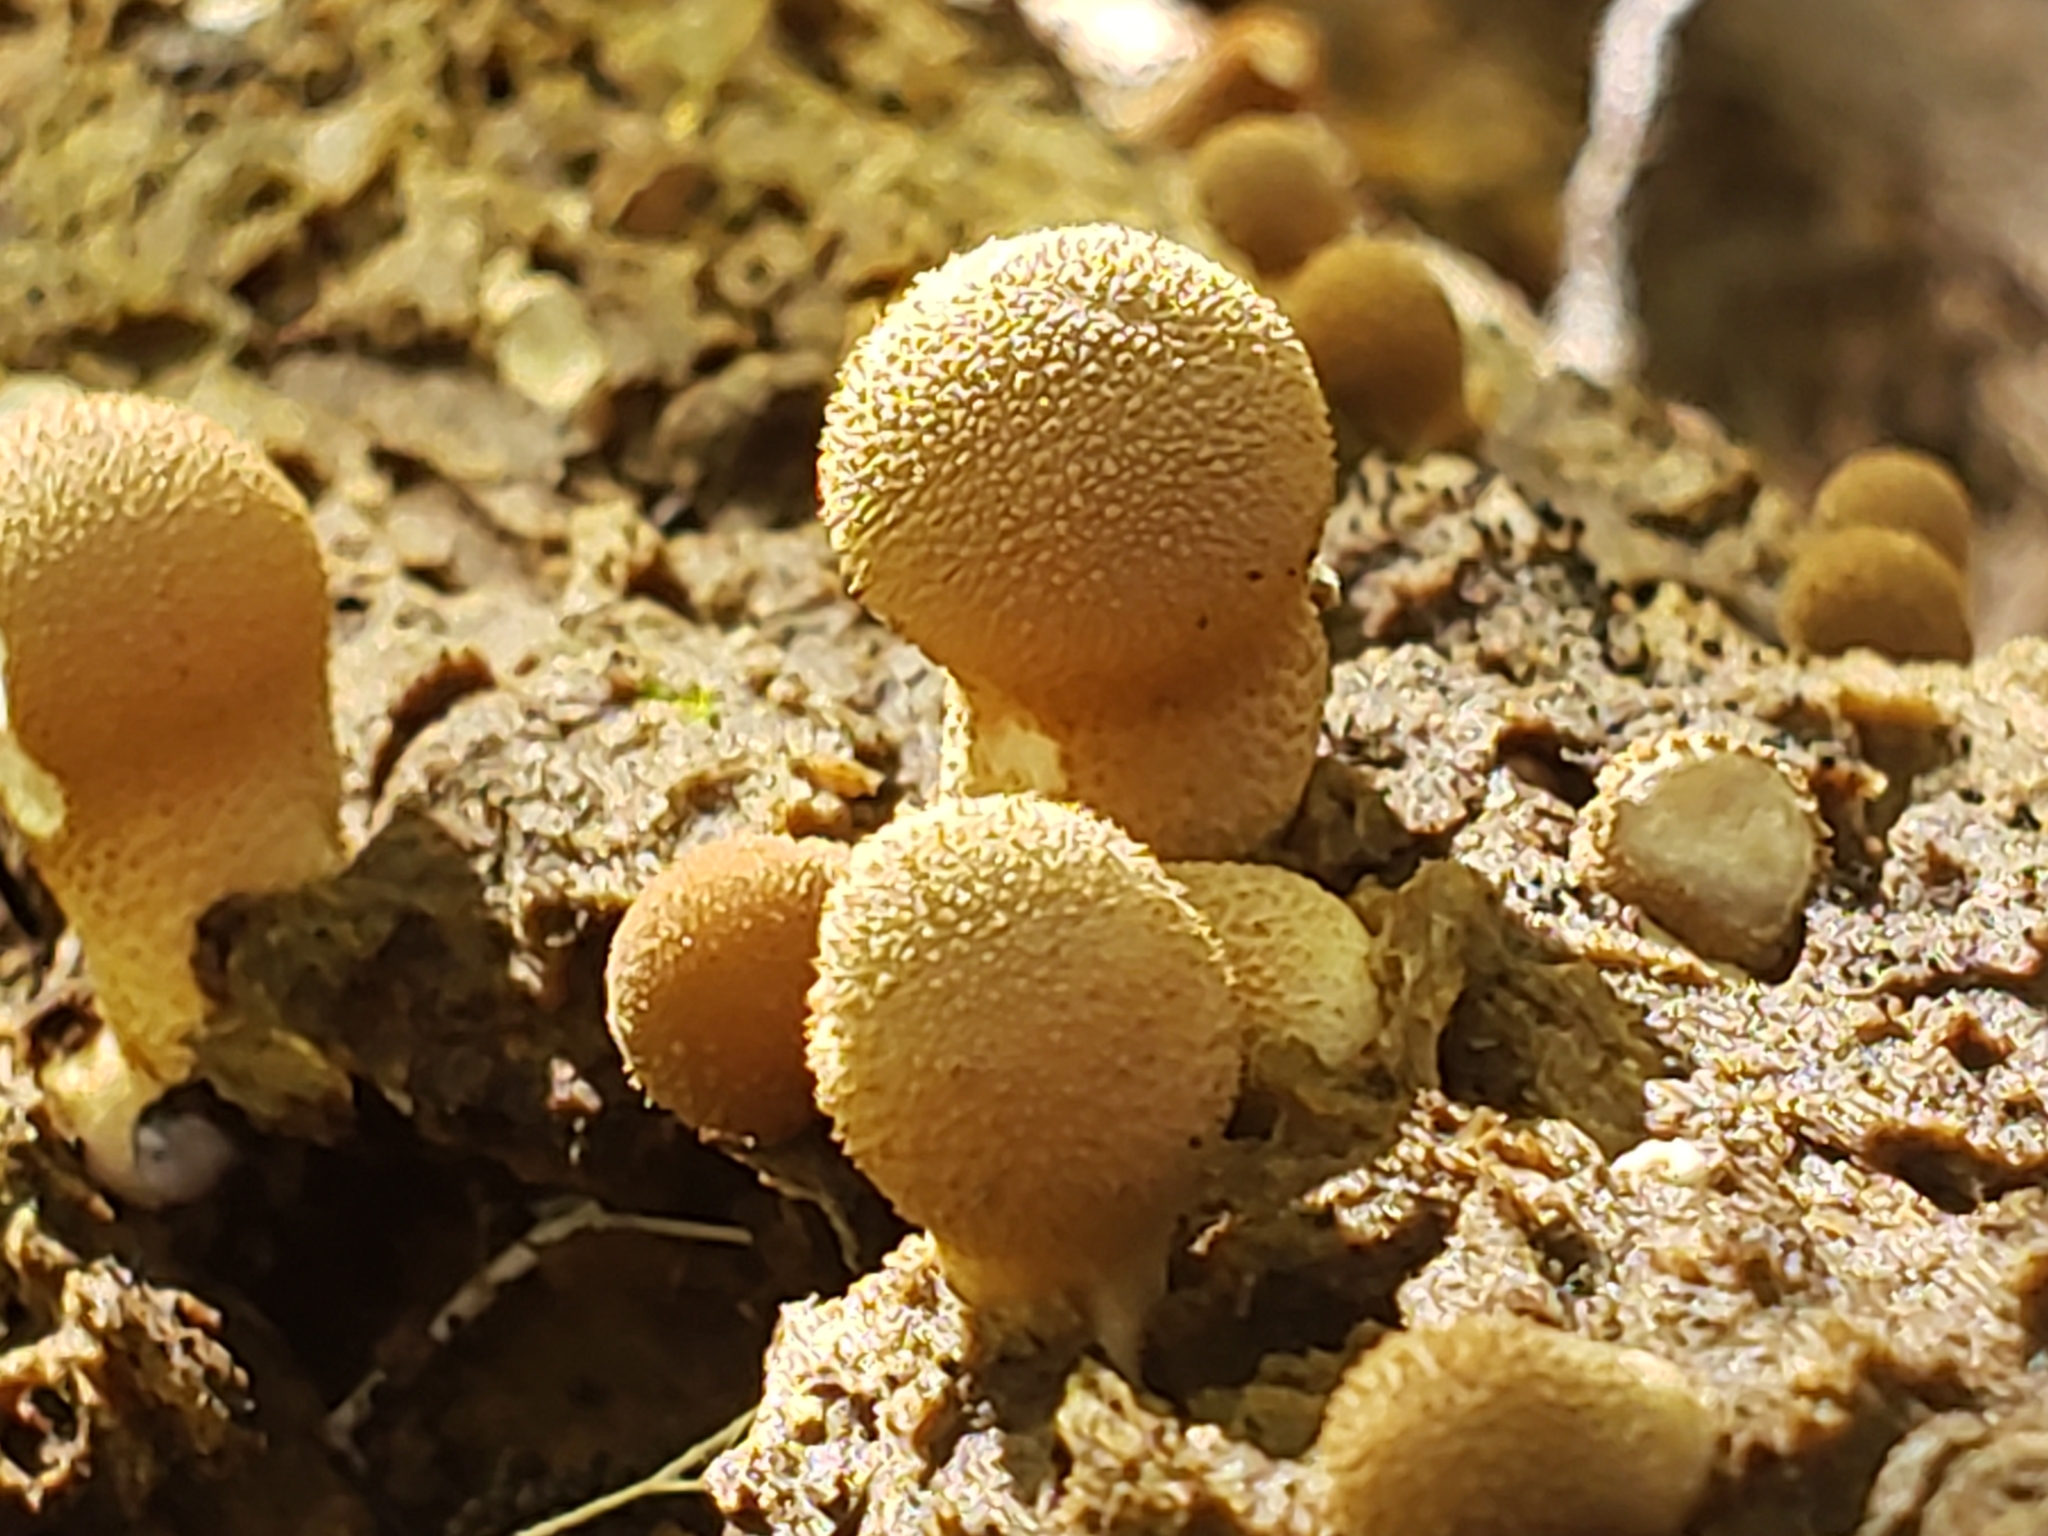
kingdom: Fungi
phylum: Basidiomycota
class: Agaricomycetes
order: Agaricales
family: Lycoperdaceae
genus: Lycoperdon
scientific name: Lycoperdon perlatum
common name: Common puffball
